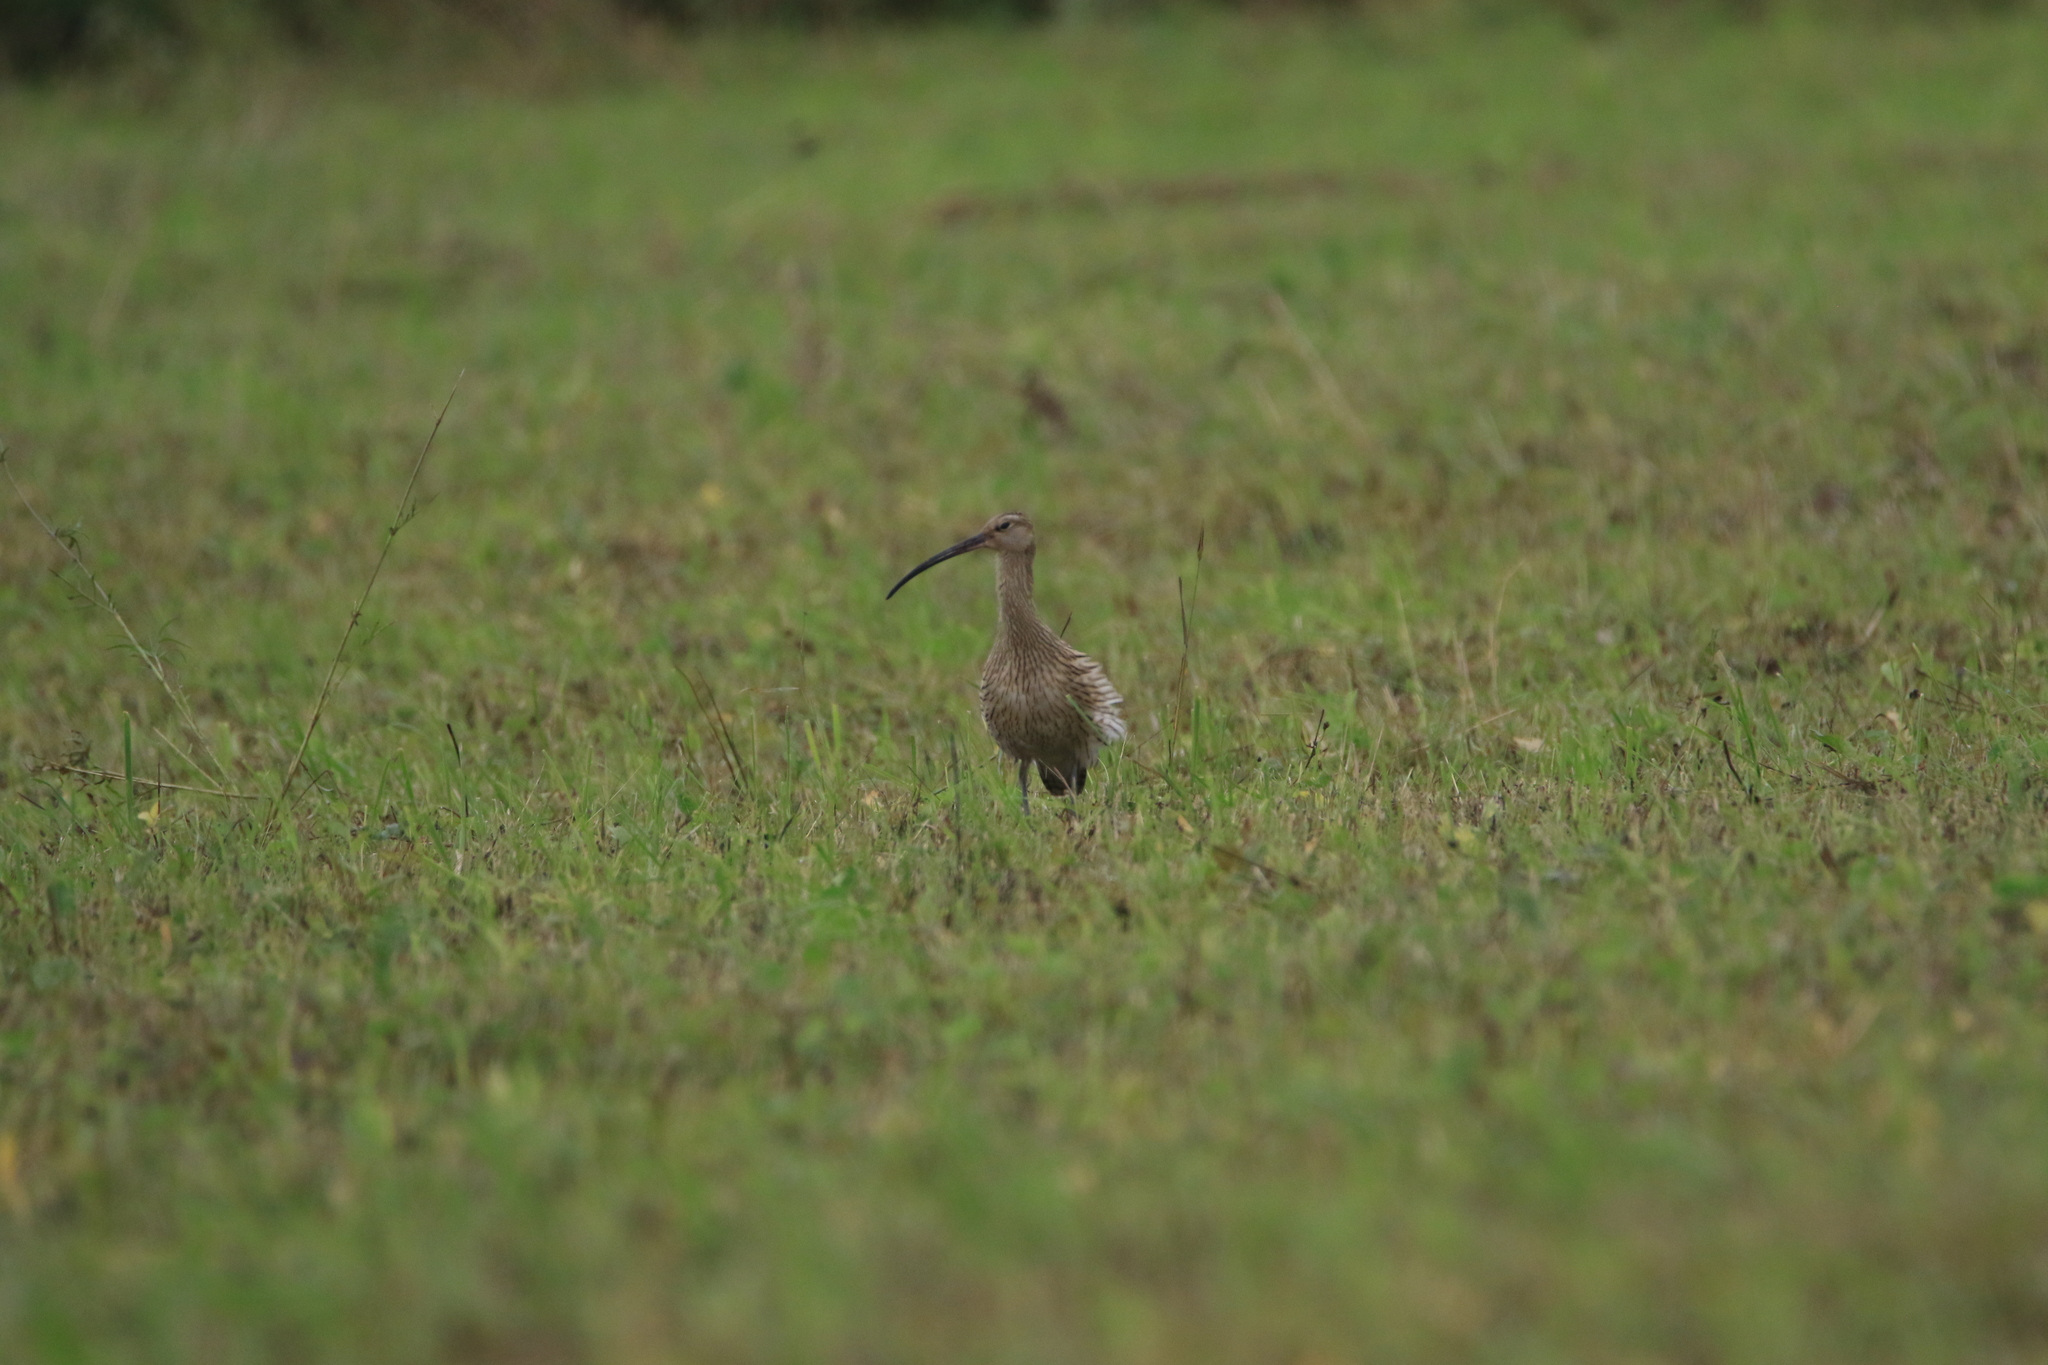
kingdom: Animalia
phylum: Chordata
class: Aves
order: Charadriiformes
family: Scolopacidae
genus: Numenius
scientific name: Numenius arquata
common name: Eurasian curlew
